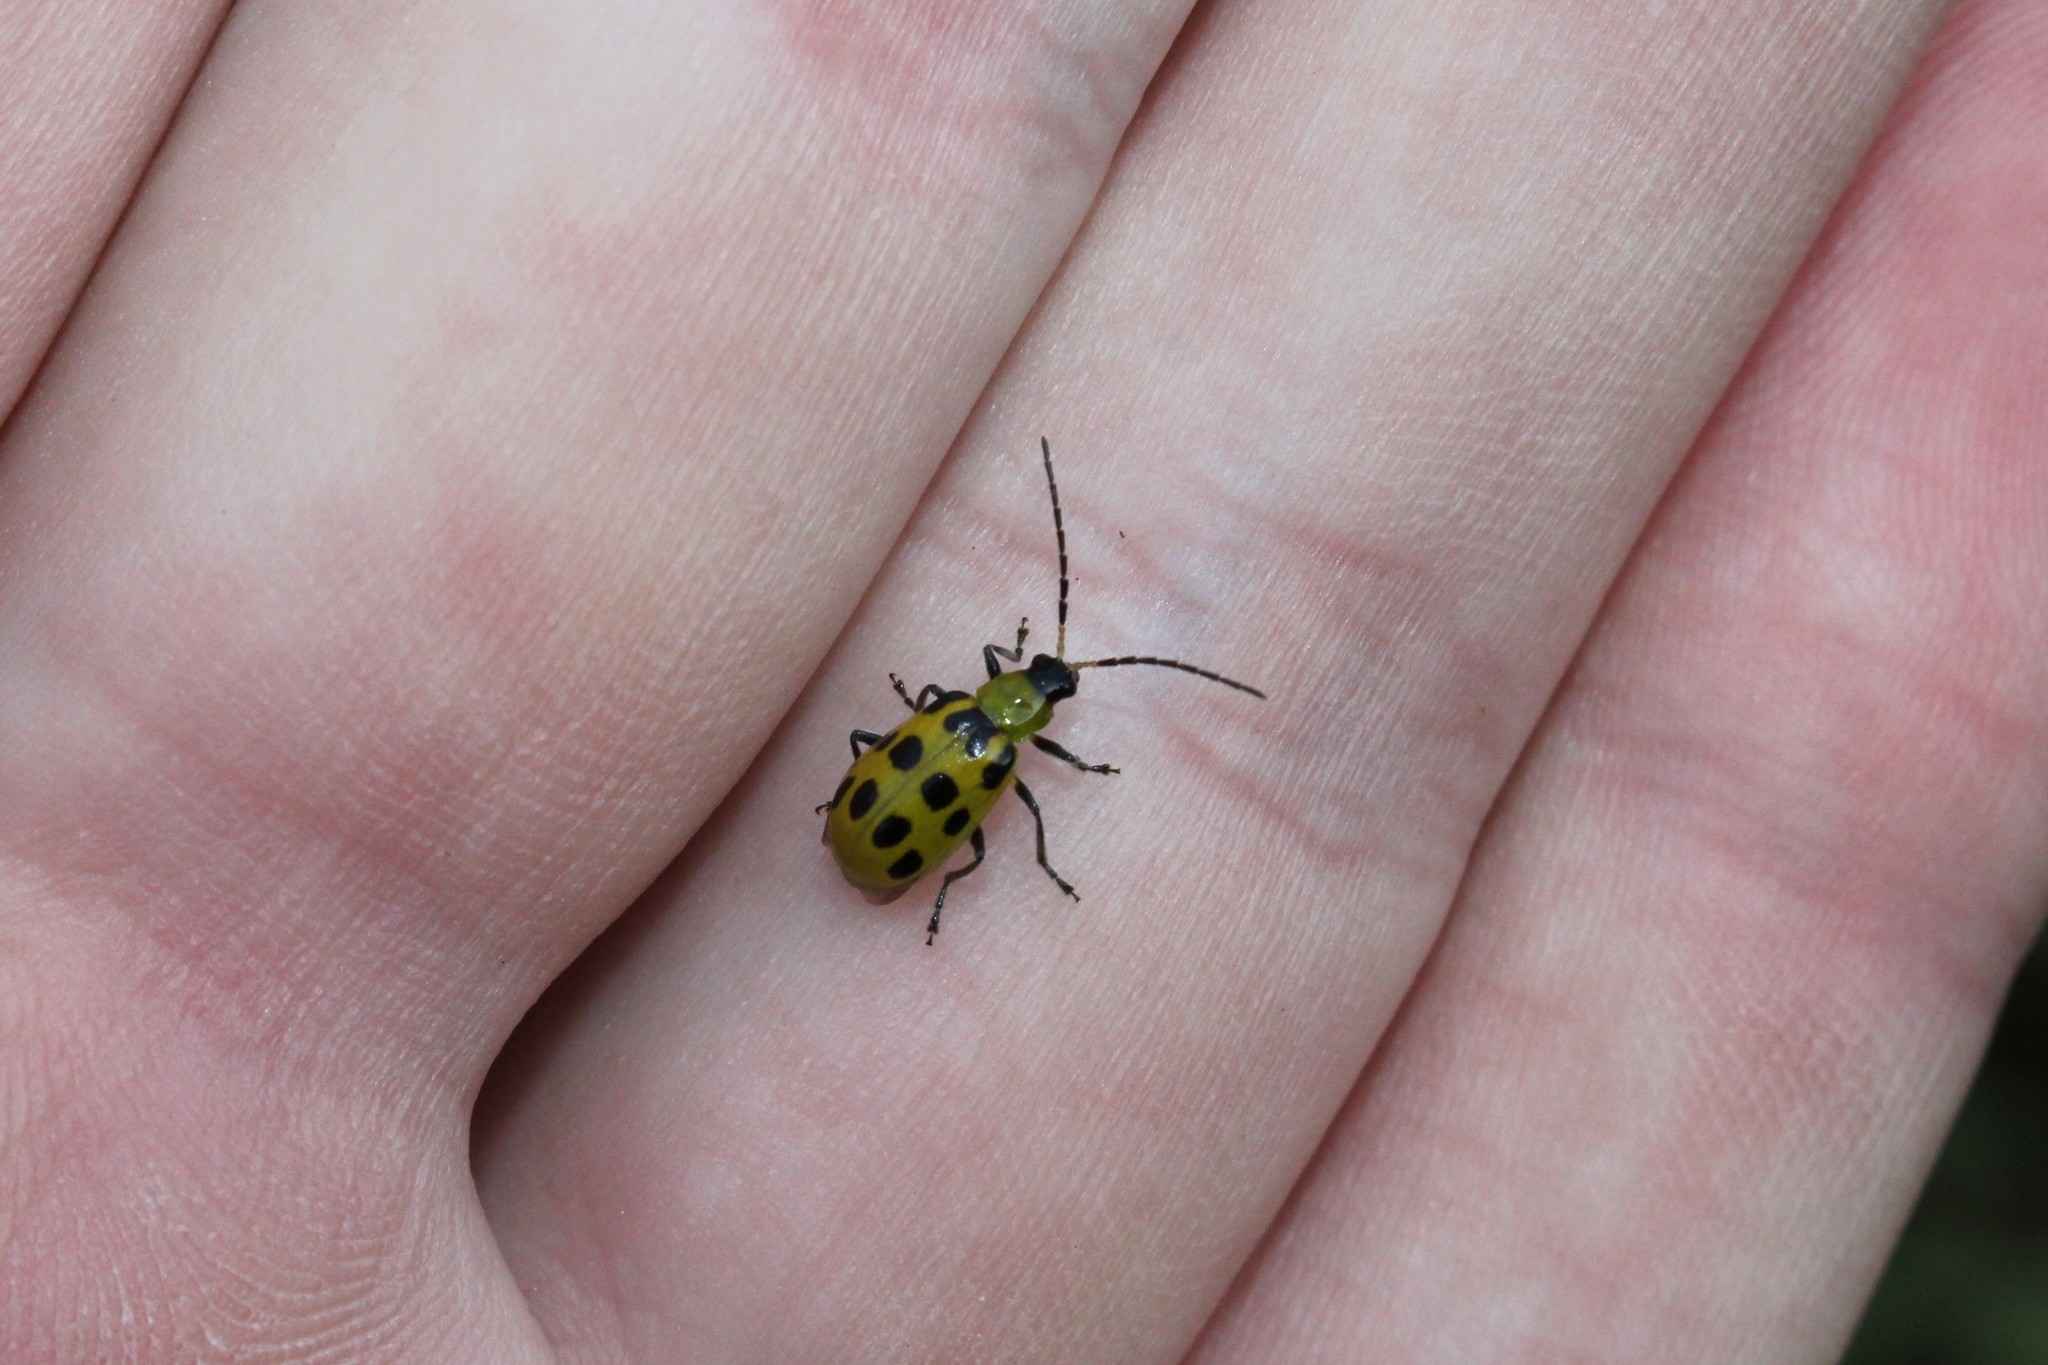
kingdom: Animalia
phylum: Arthropoda
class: Insecta
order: Coleoptera
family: Chrysomelidae
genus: Diabrotica
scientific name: Diabrotica undecimpunctata
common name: Spotted cucumber beetle
